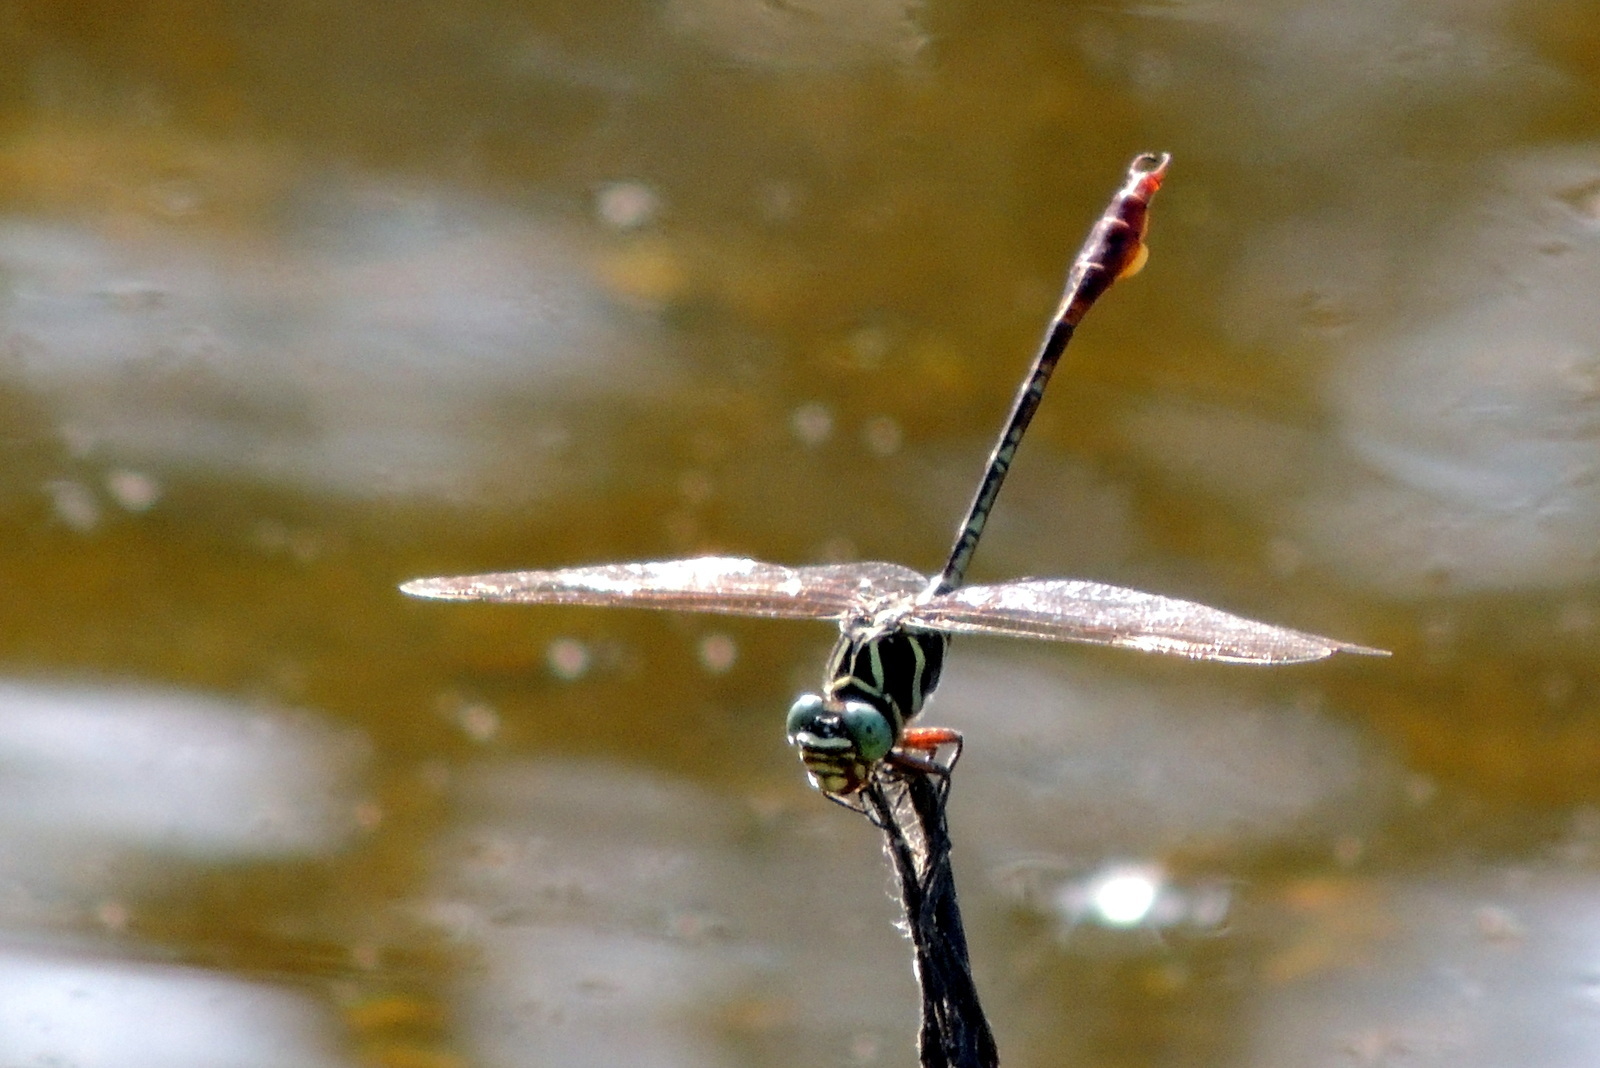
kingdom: Animalia
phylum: Arthropoda
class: Insecta
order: Odonata
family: Gomphidae
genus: Aphylla
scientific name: Aphylla williamsoni
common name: Two-striped forceptail
